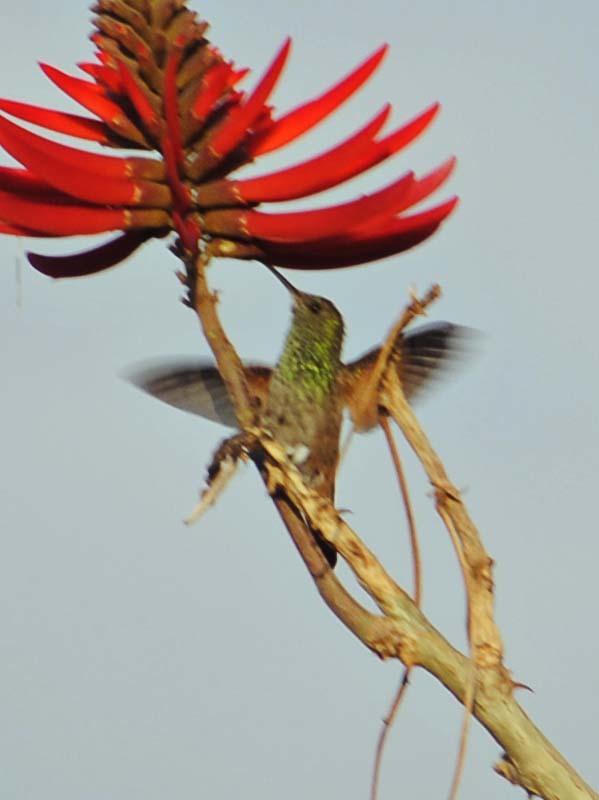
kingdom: Animalia
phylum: Chordata
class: Aves
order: Apodiformes
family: Trochilidae
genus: Saucerottia
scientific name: Saucerottia beryllina
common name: Berylline hummingbird
